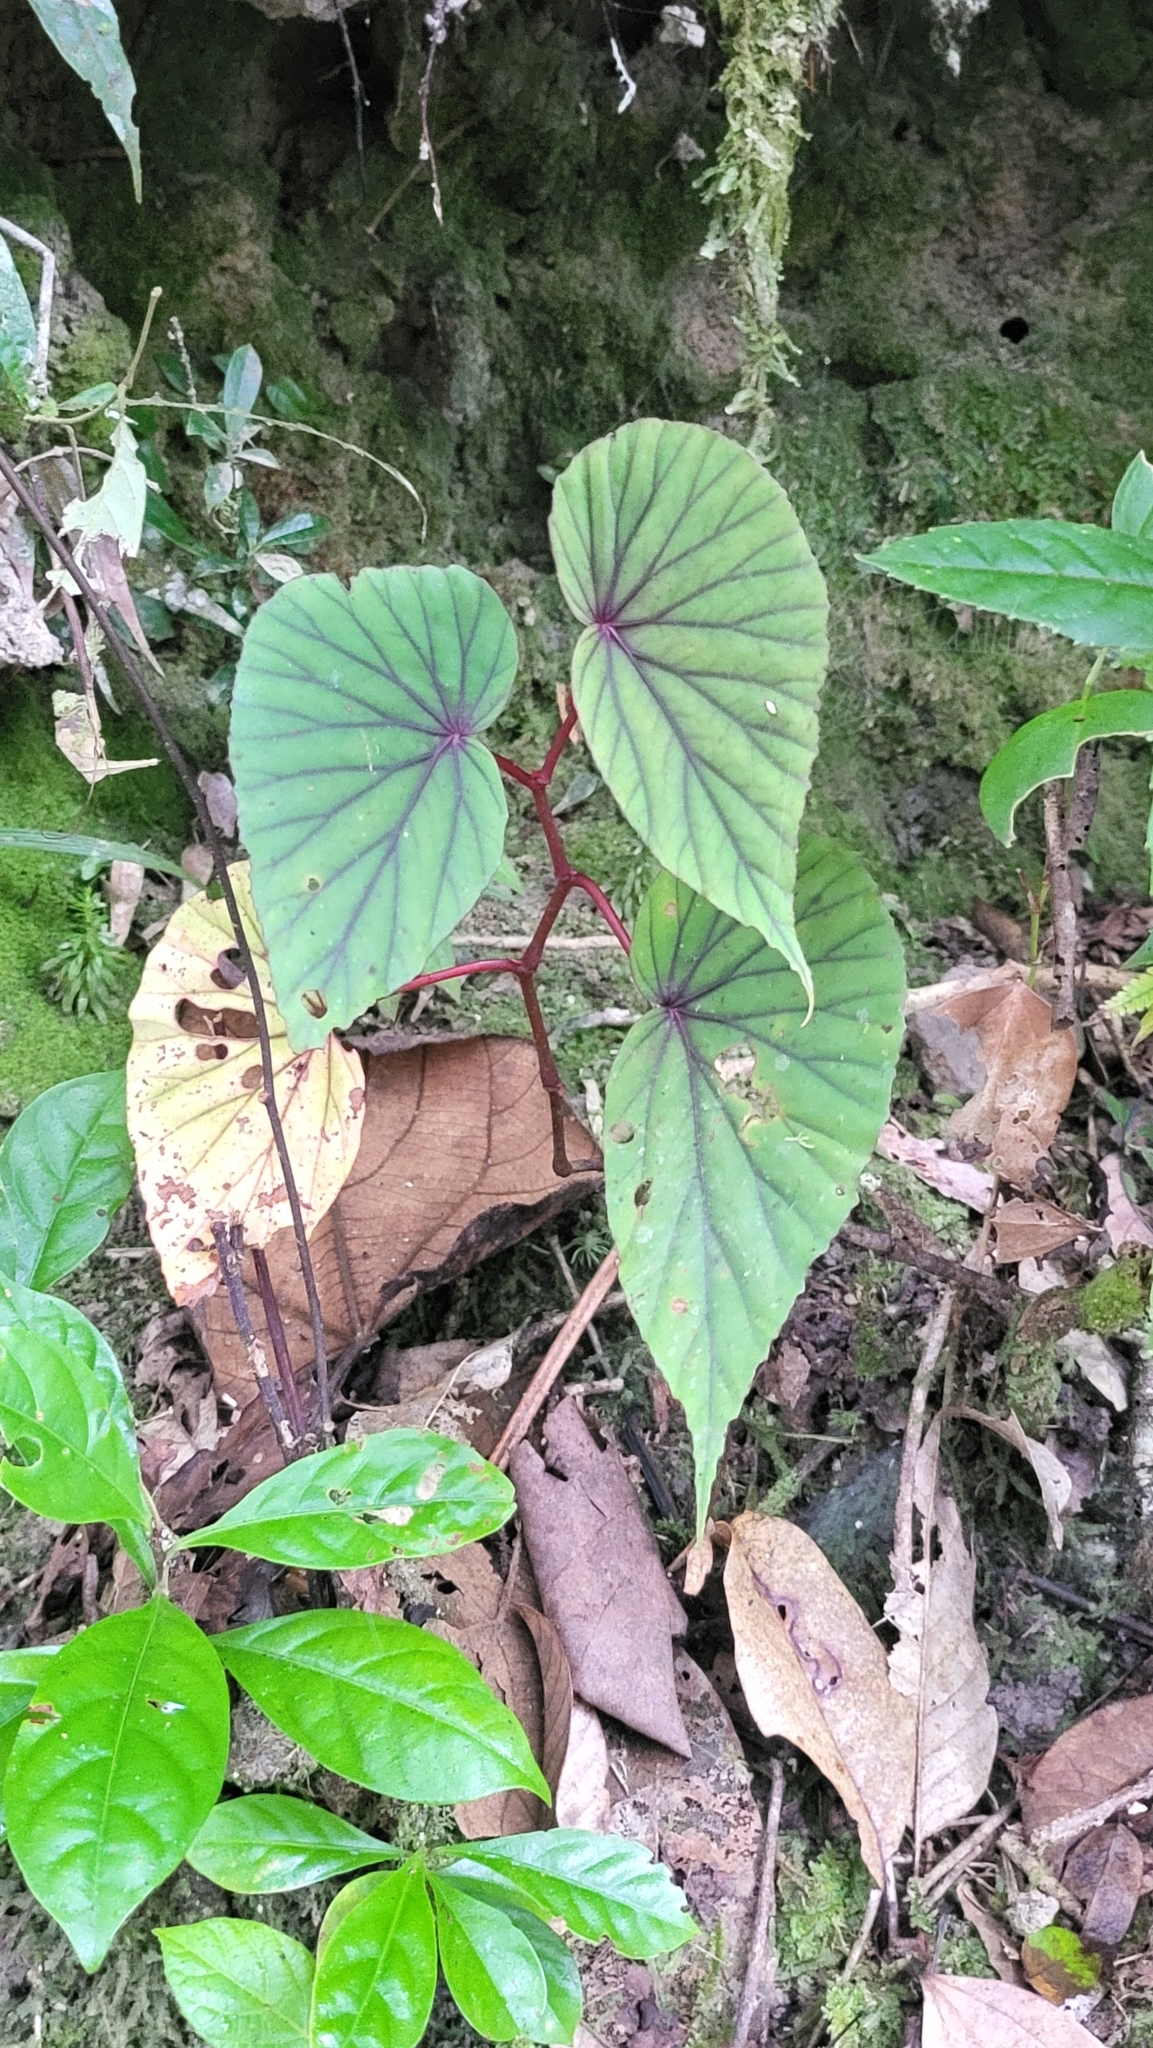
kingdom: Plantae
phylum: Tracheophyta
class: Magnoliopsida
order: Cucurbitales
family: Begoniaceae
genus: Begonia
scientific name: Begonia beryllae
